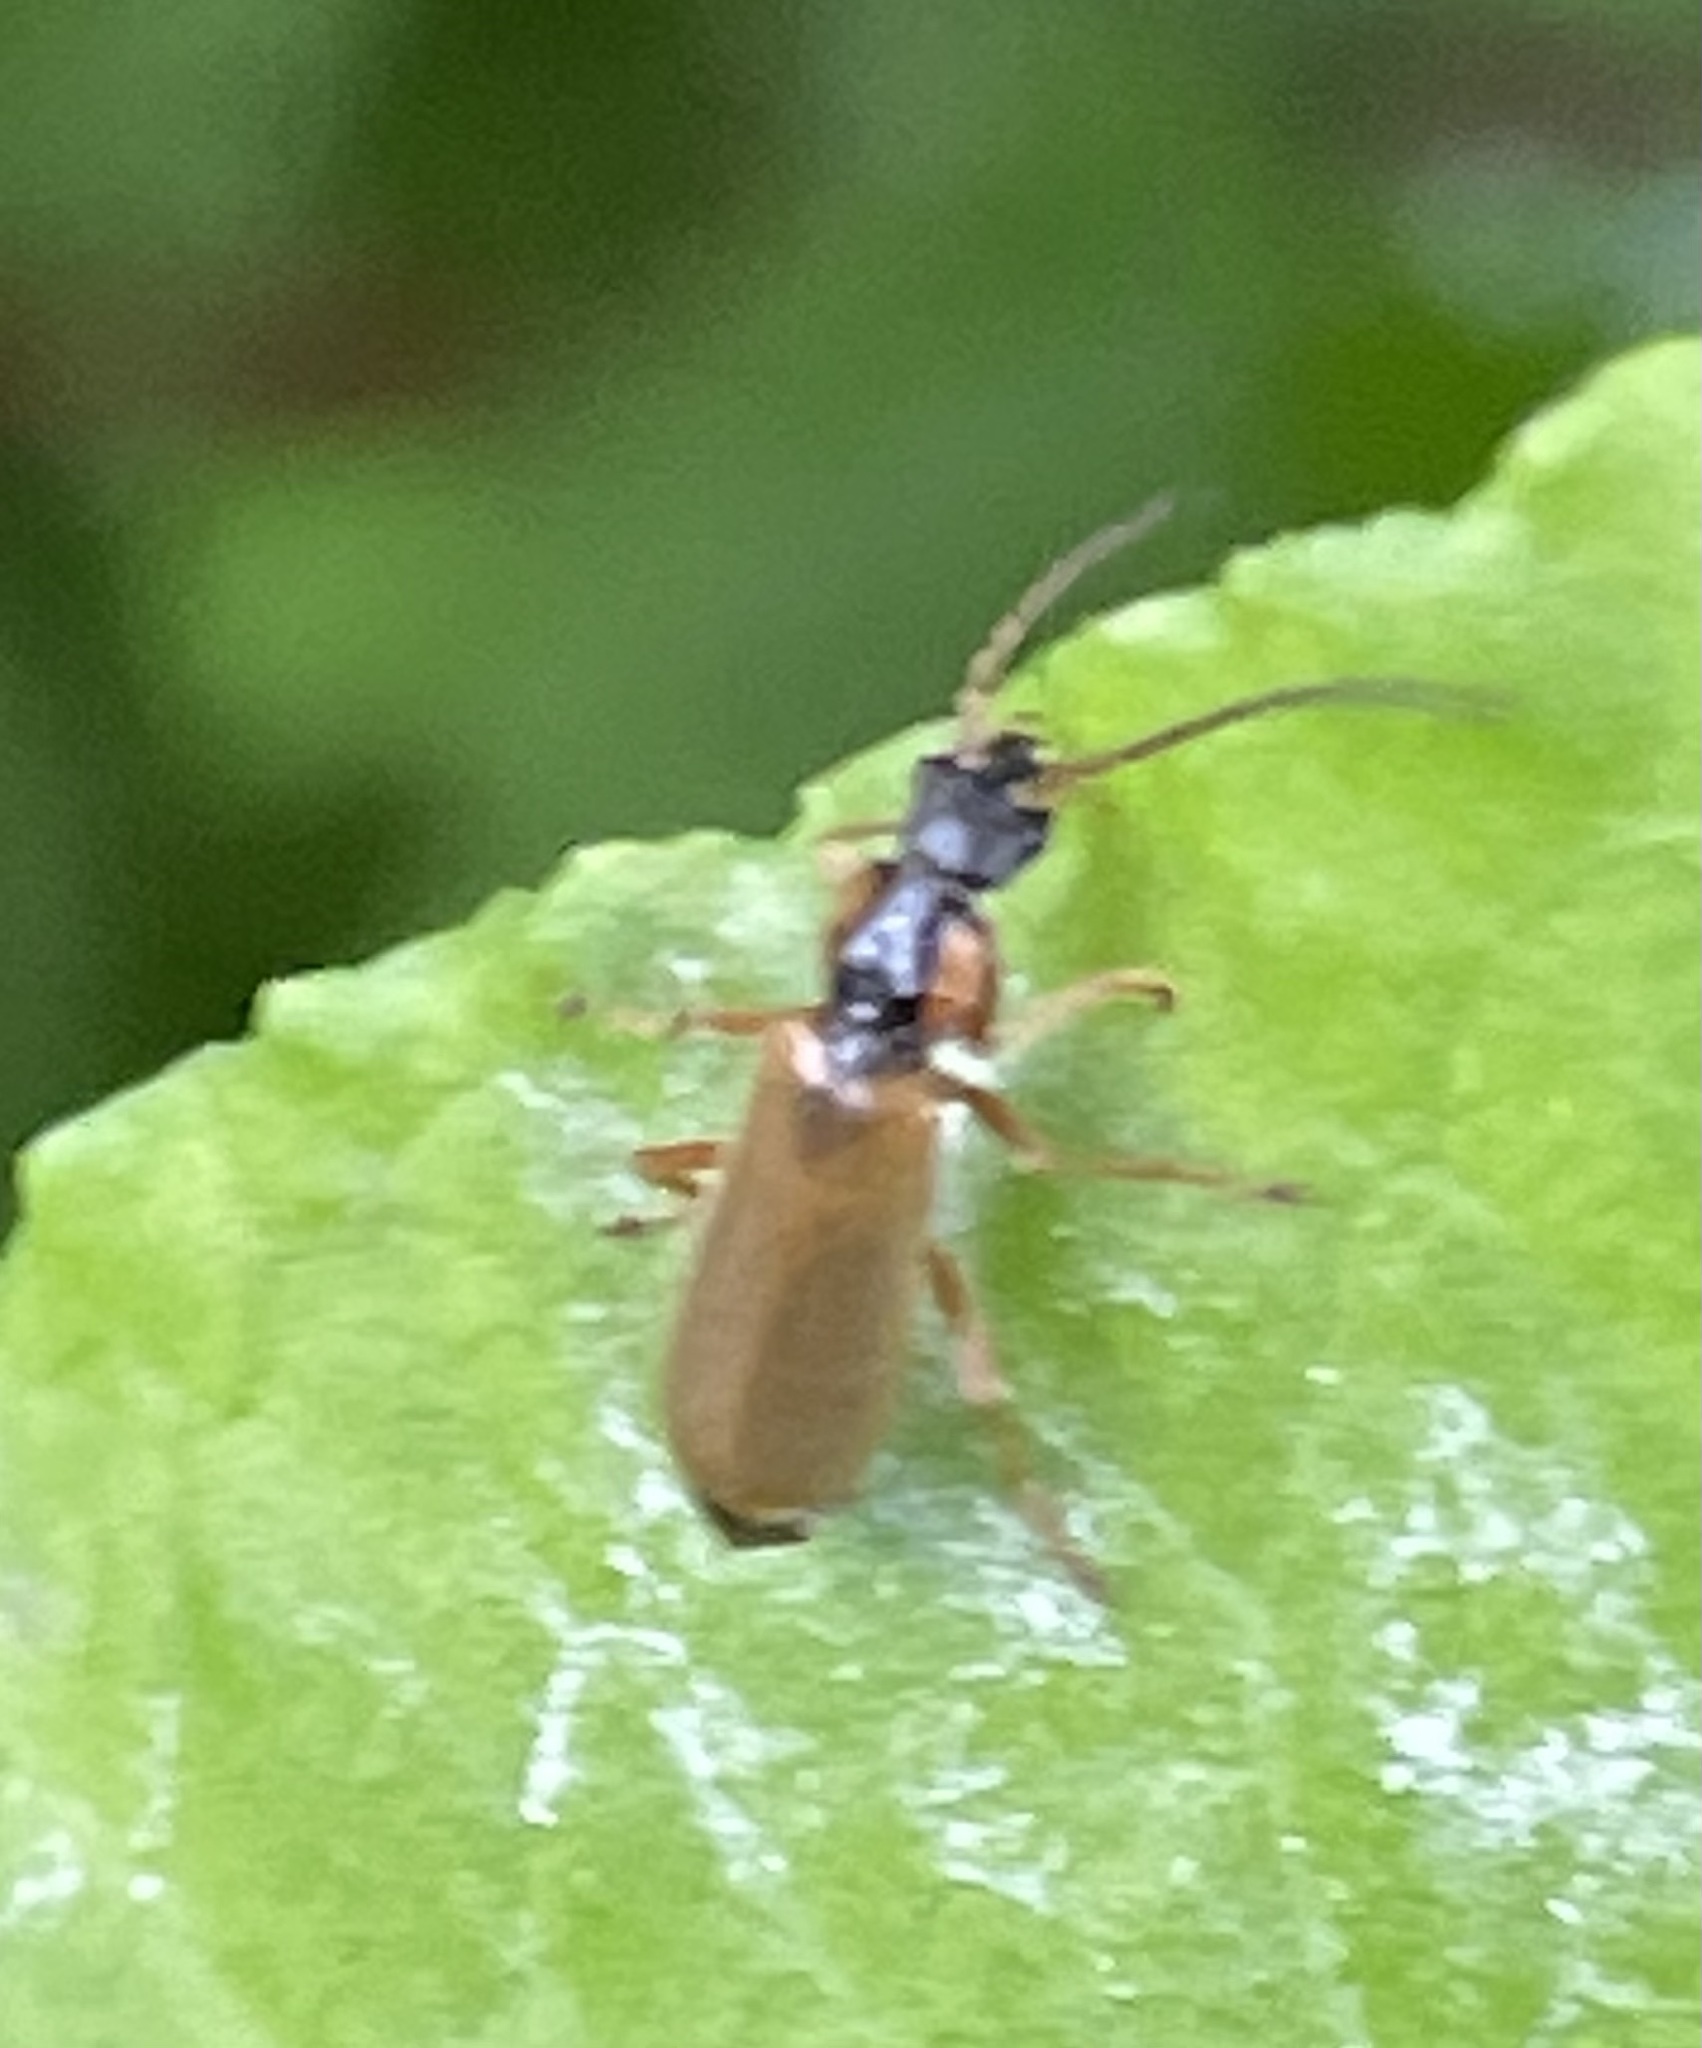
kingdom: Animalia
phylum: Arthropoda
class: Insecta
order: Coleoptera
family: Cantharidae
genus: Rhagonycha
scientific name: Rhagonycha testacea
